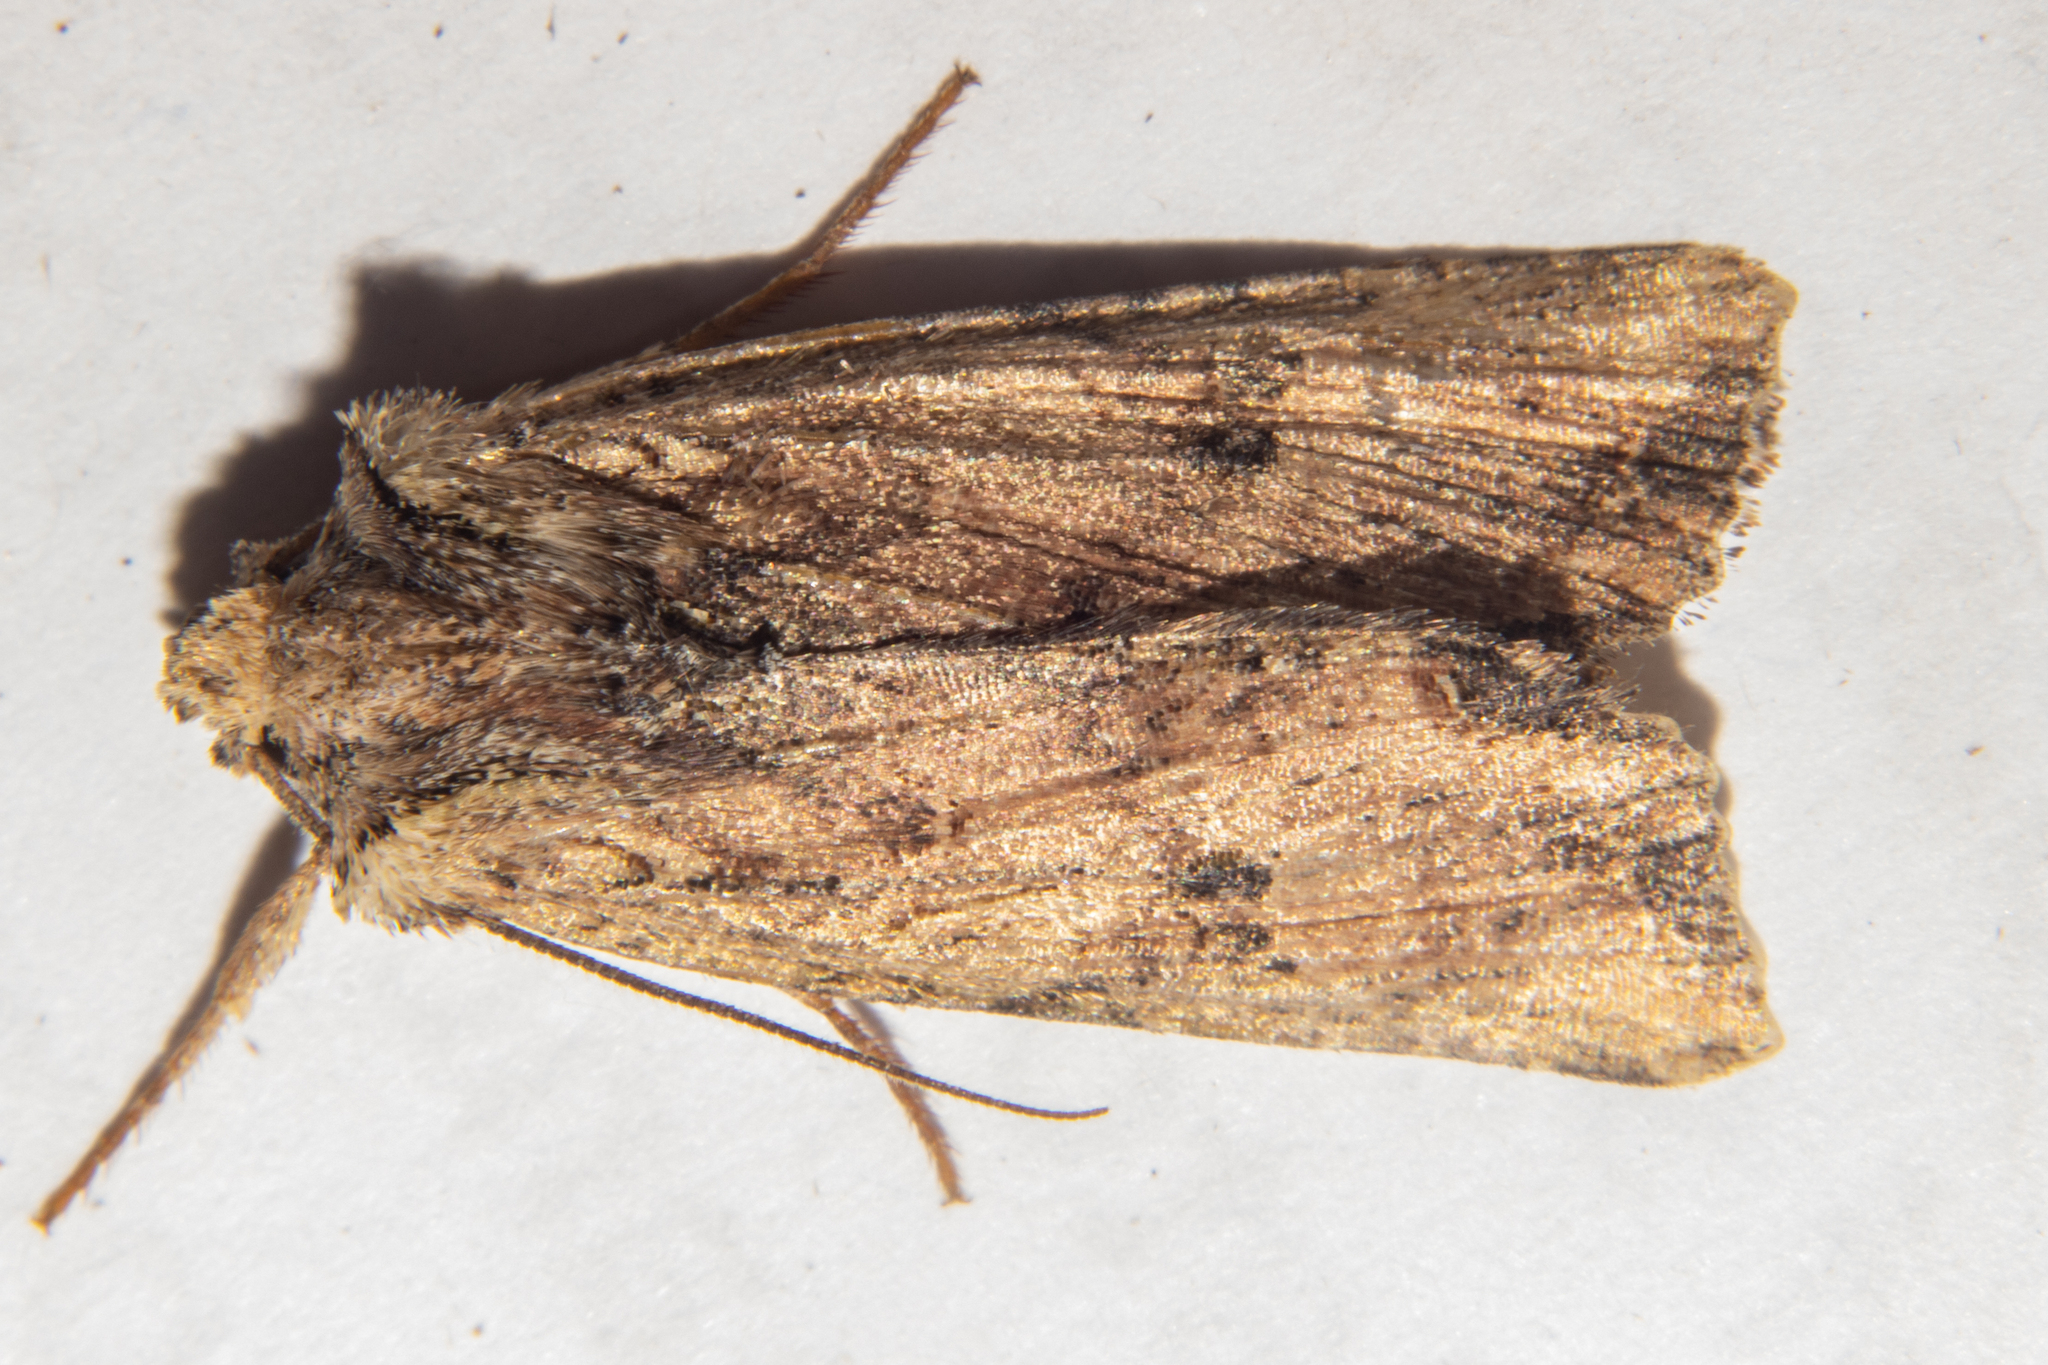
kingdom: Animalia
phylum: Arthropoda
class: Insecta
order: Lepidoptera
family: Noctuidae
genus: Meterana
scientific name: Meterana coeleno
